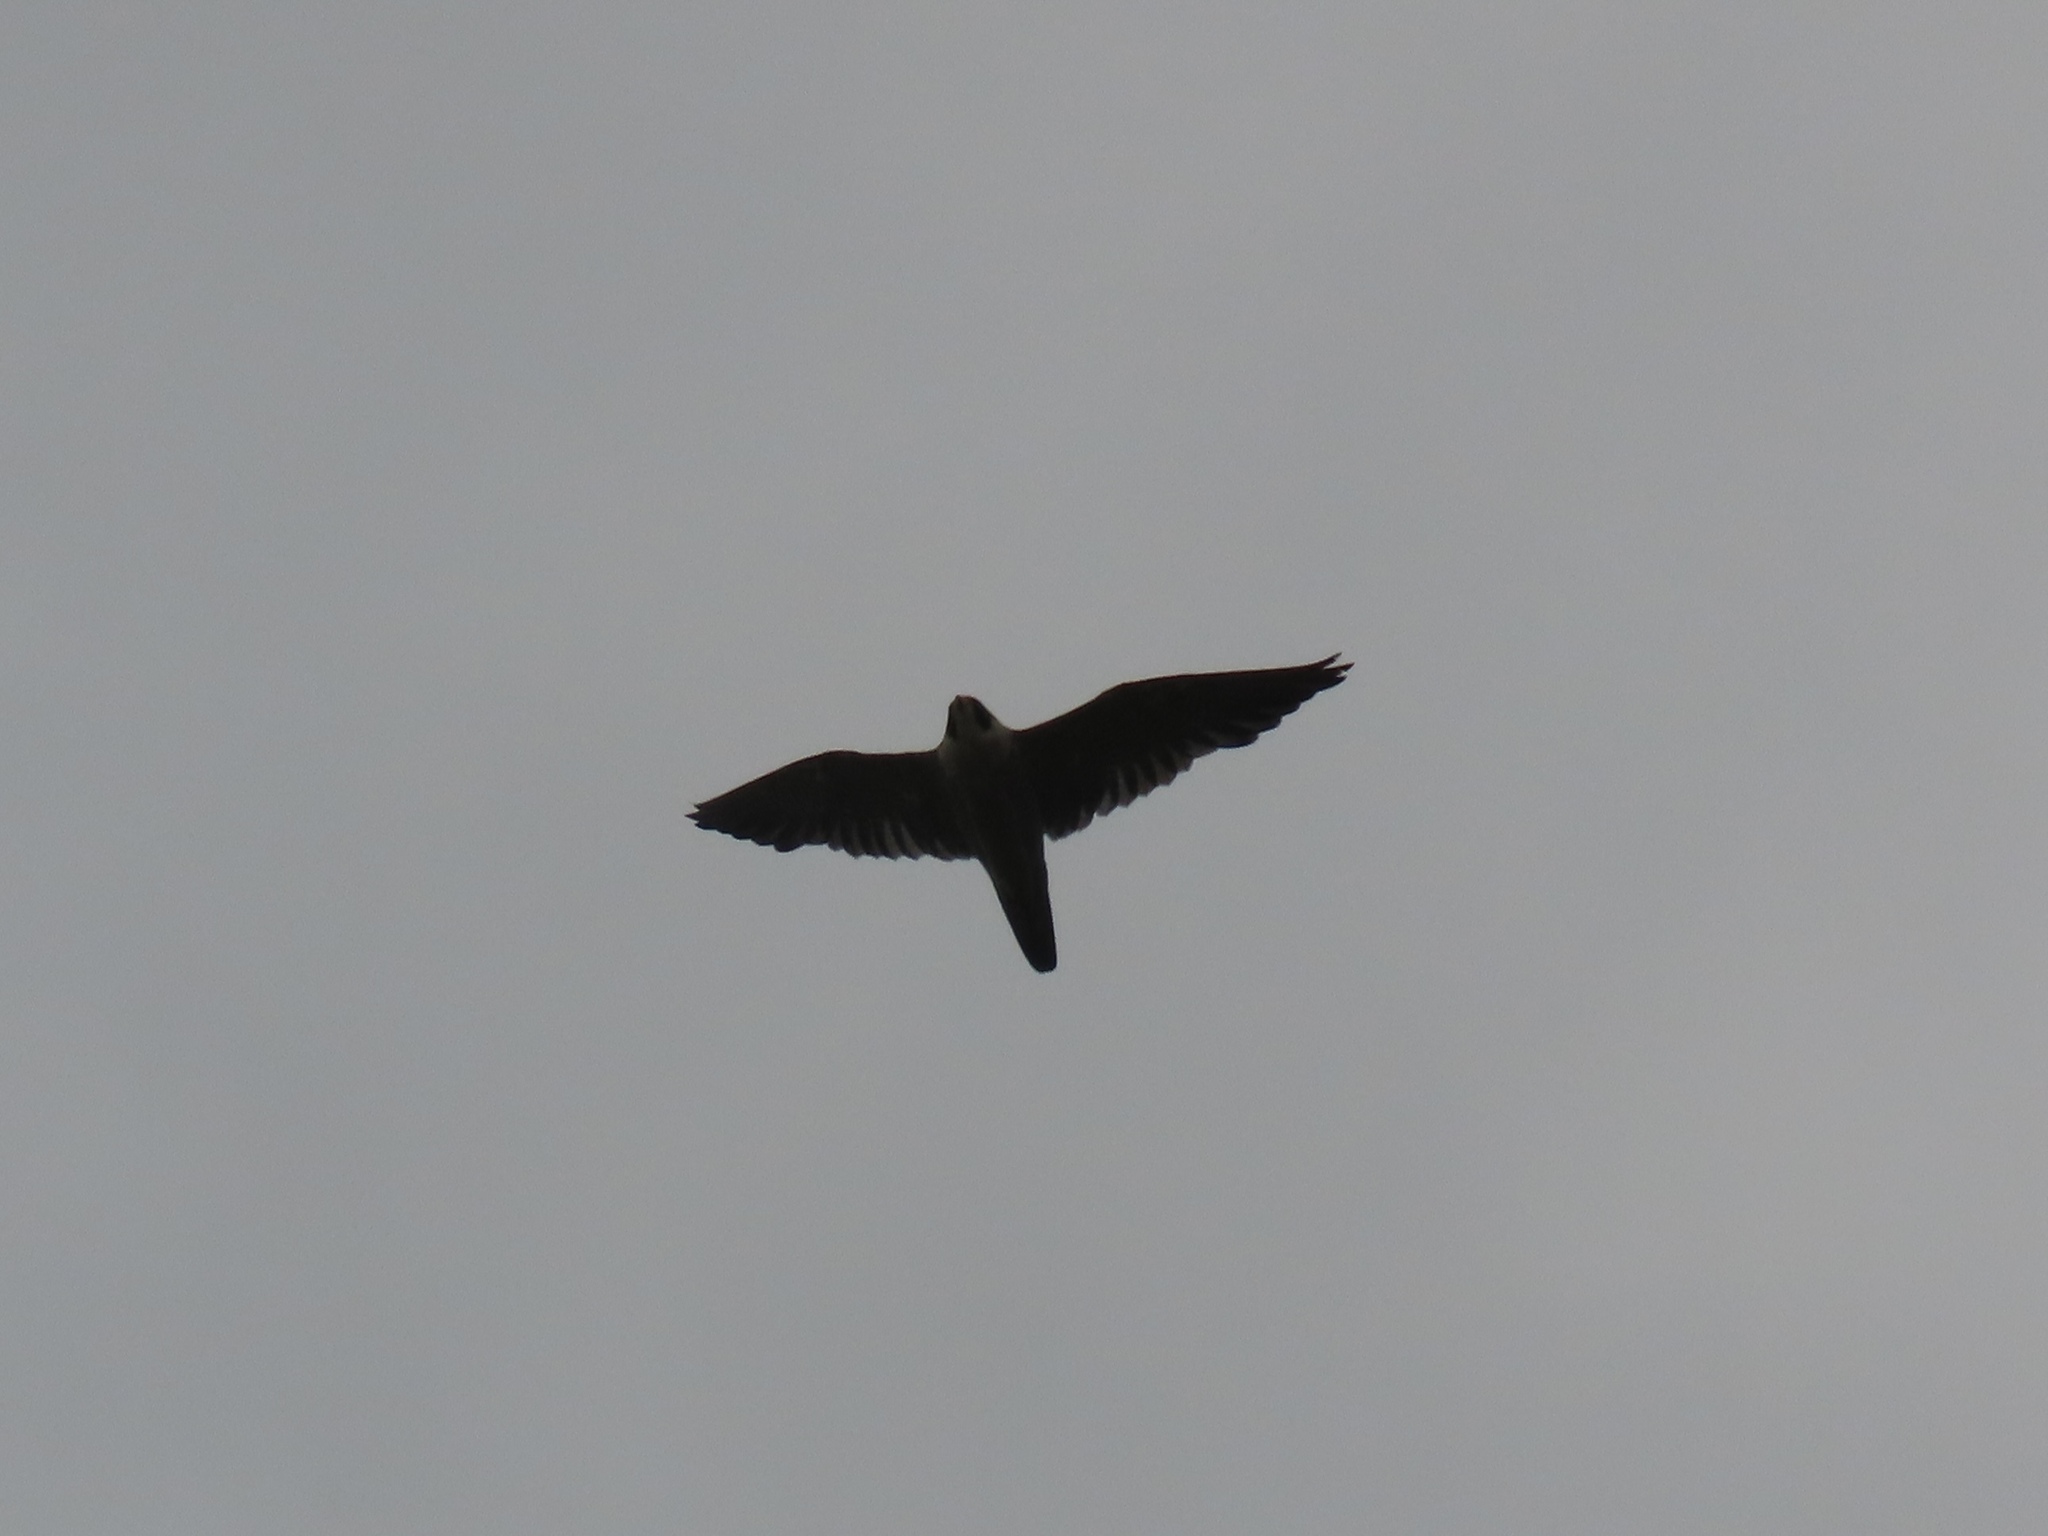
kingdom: Animalia
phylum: Chordata
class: Aves
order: Falconiformes
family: Falconidae
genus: Falco
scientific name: Falco peregrinus
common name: Peregrine falcon
